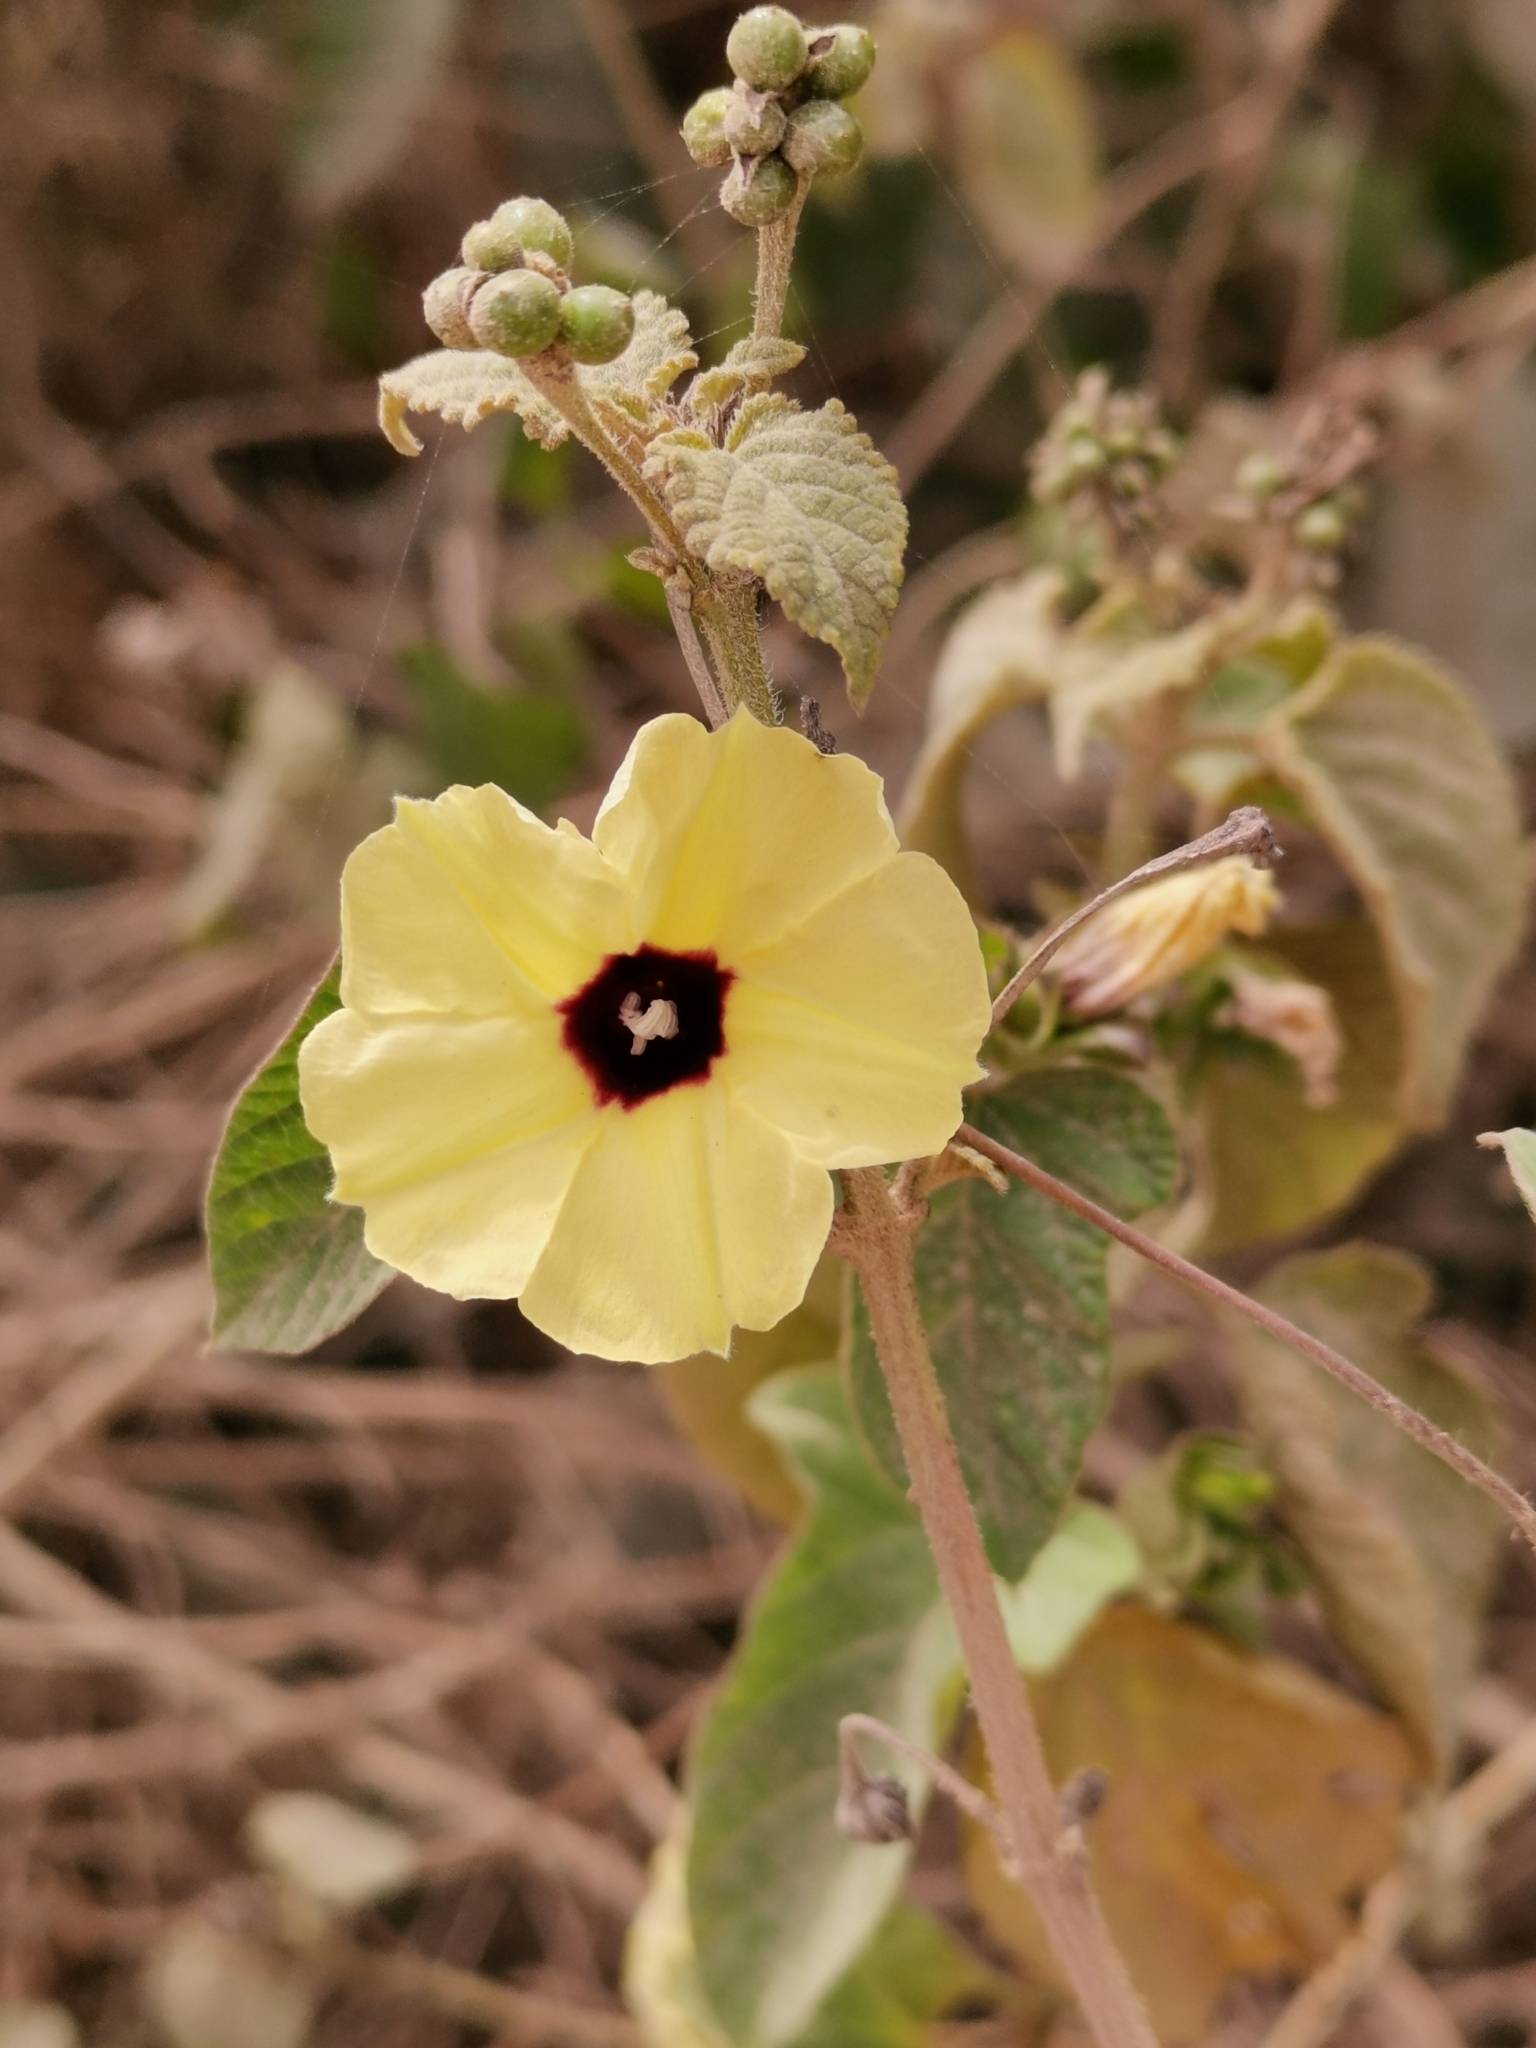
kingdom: Plantae
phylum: Tracheophyta
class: Magnoliopsida
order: Solanales
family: Convolvulaceae
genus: Hewittia
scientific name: Hewittia malabarica
